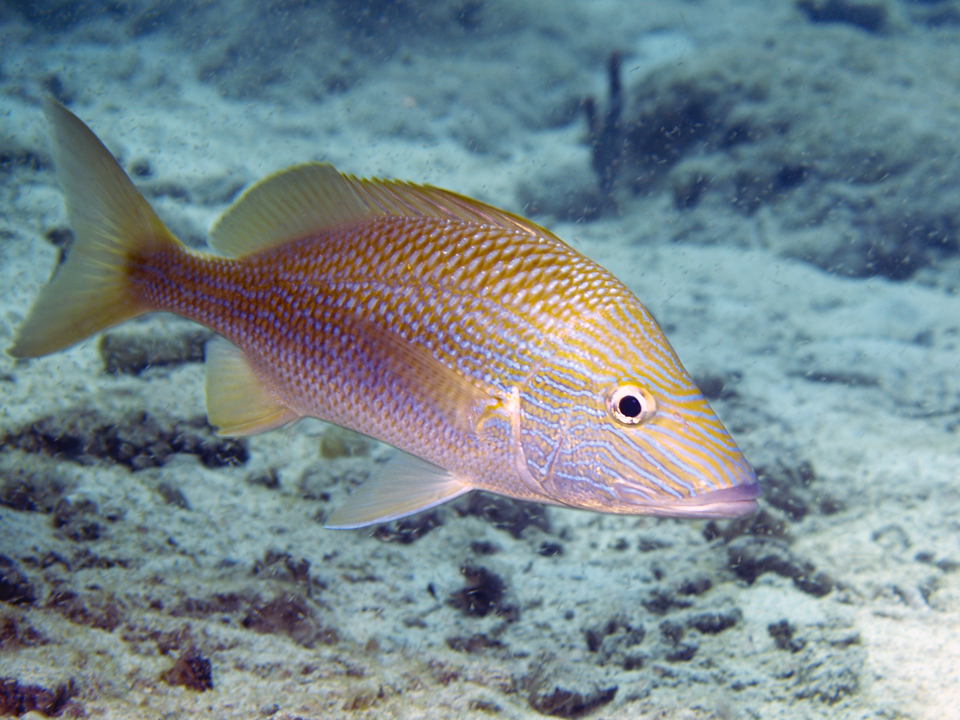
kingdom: Animalia
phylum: Chordata
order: Perciformes
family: Haemulidae
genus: Haemulon
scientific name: Haemulon plumierii
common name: White grunt
